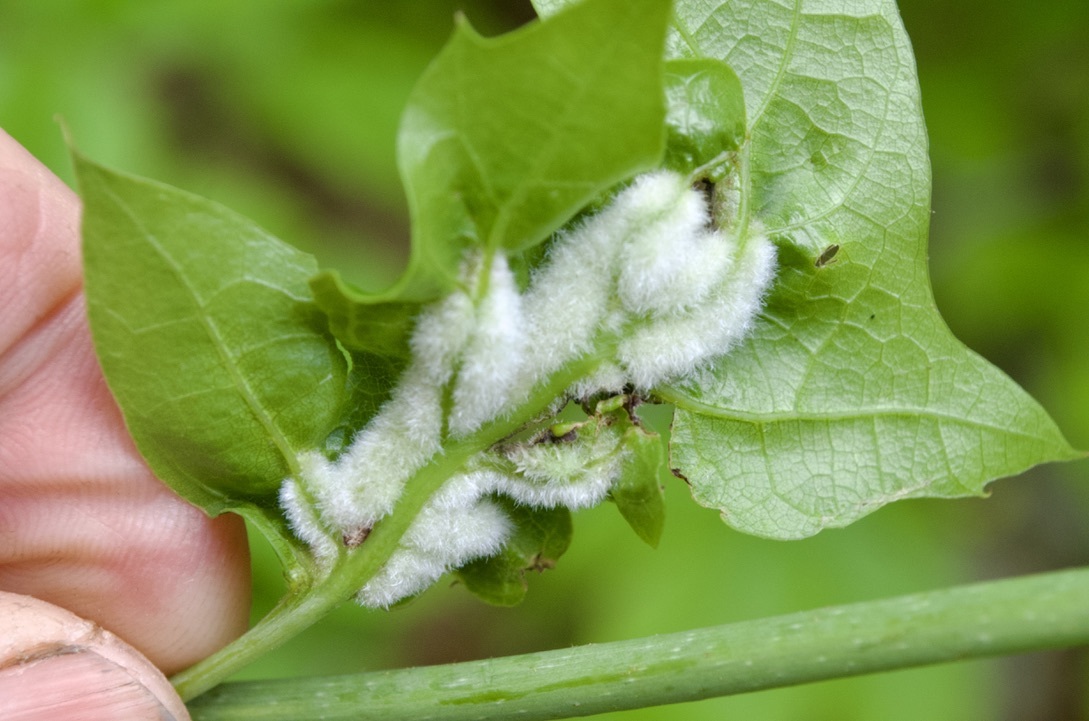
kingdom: Animalia
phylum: Arthropoda
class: Insecta
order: Diptera
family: Cecidomyiidae
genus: Macrodiplosis
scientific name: Macrodiplosis niveipila
